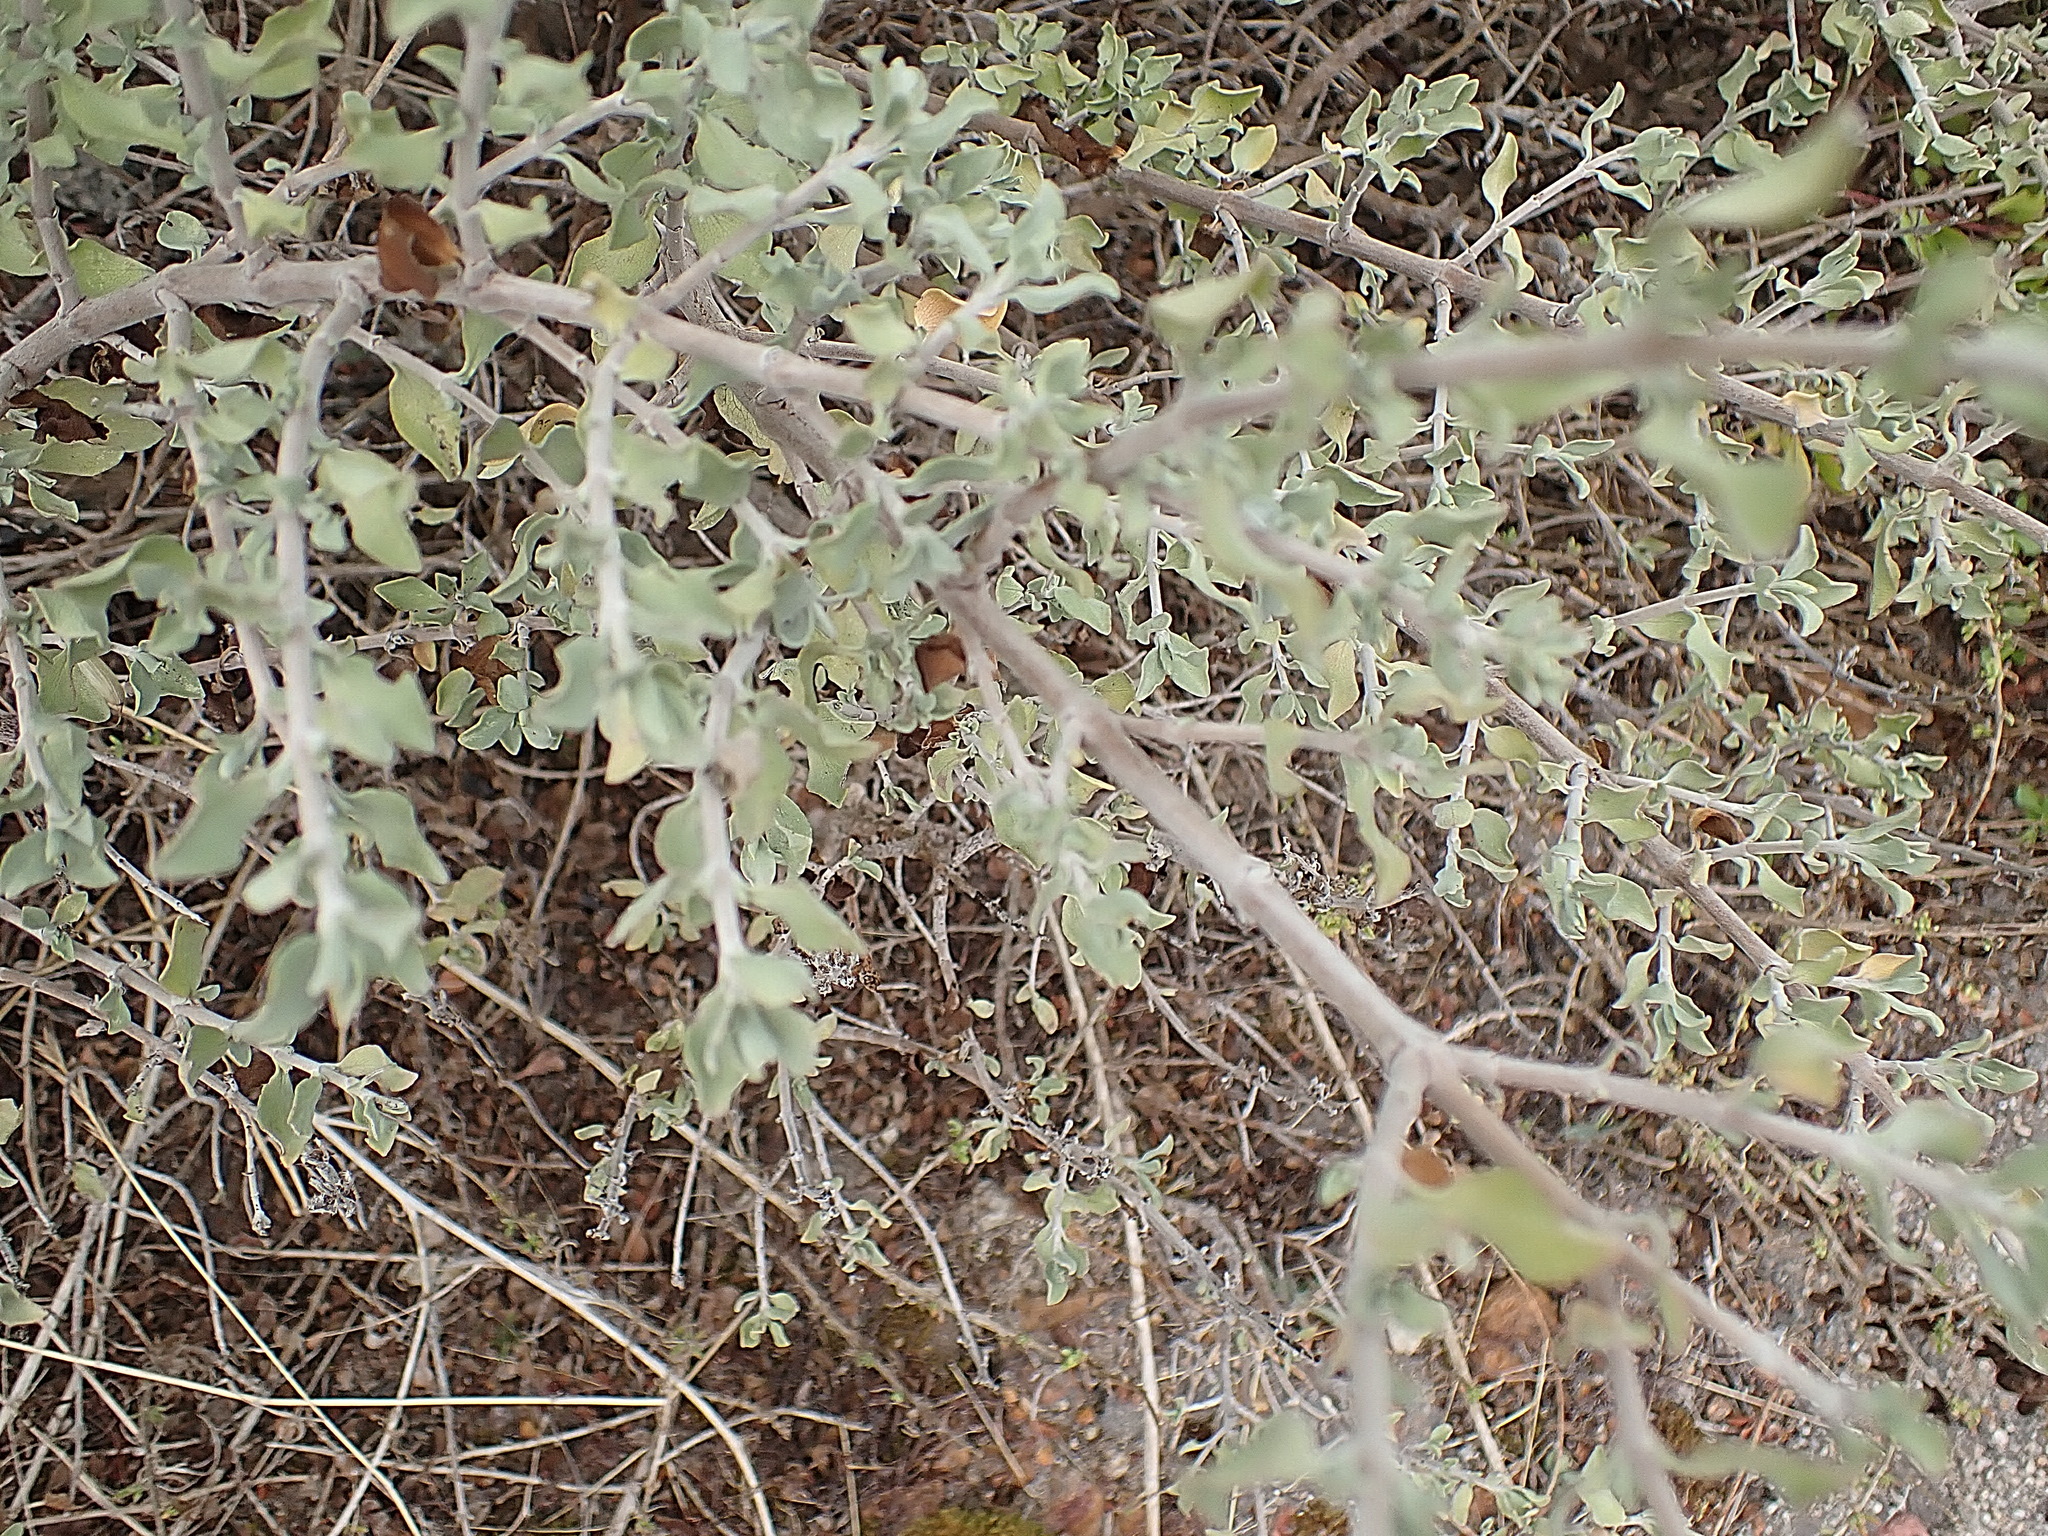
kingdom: Plantae
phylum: Tracheophyta
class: Magnoliopsida
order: Lamiales
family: Lamiaceae
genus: Salvia
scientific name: Salvia aurea
